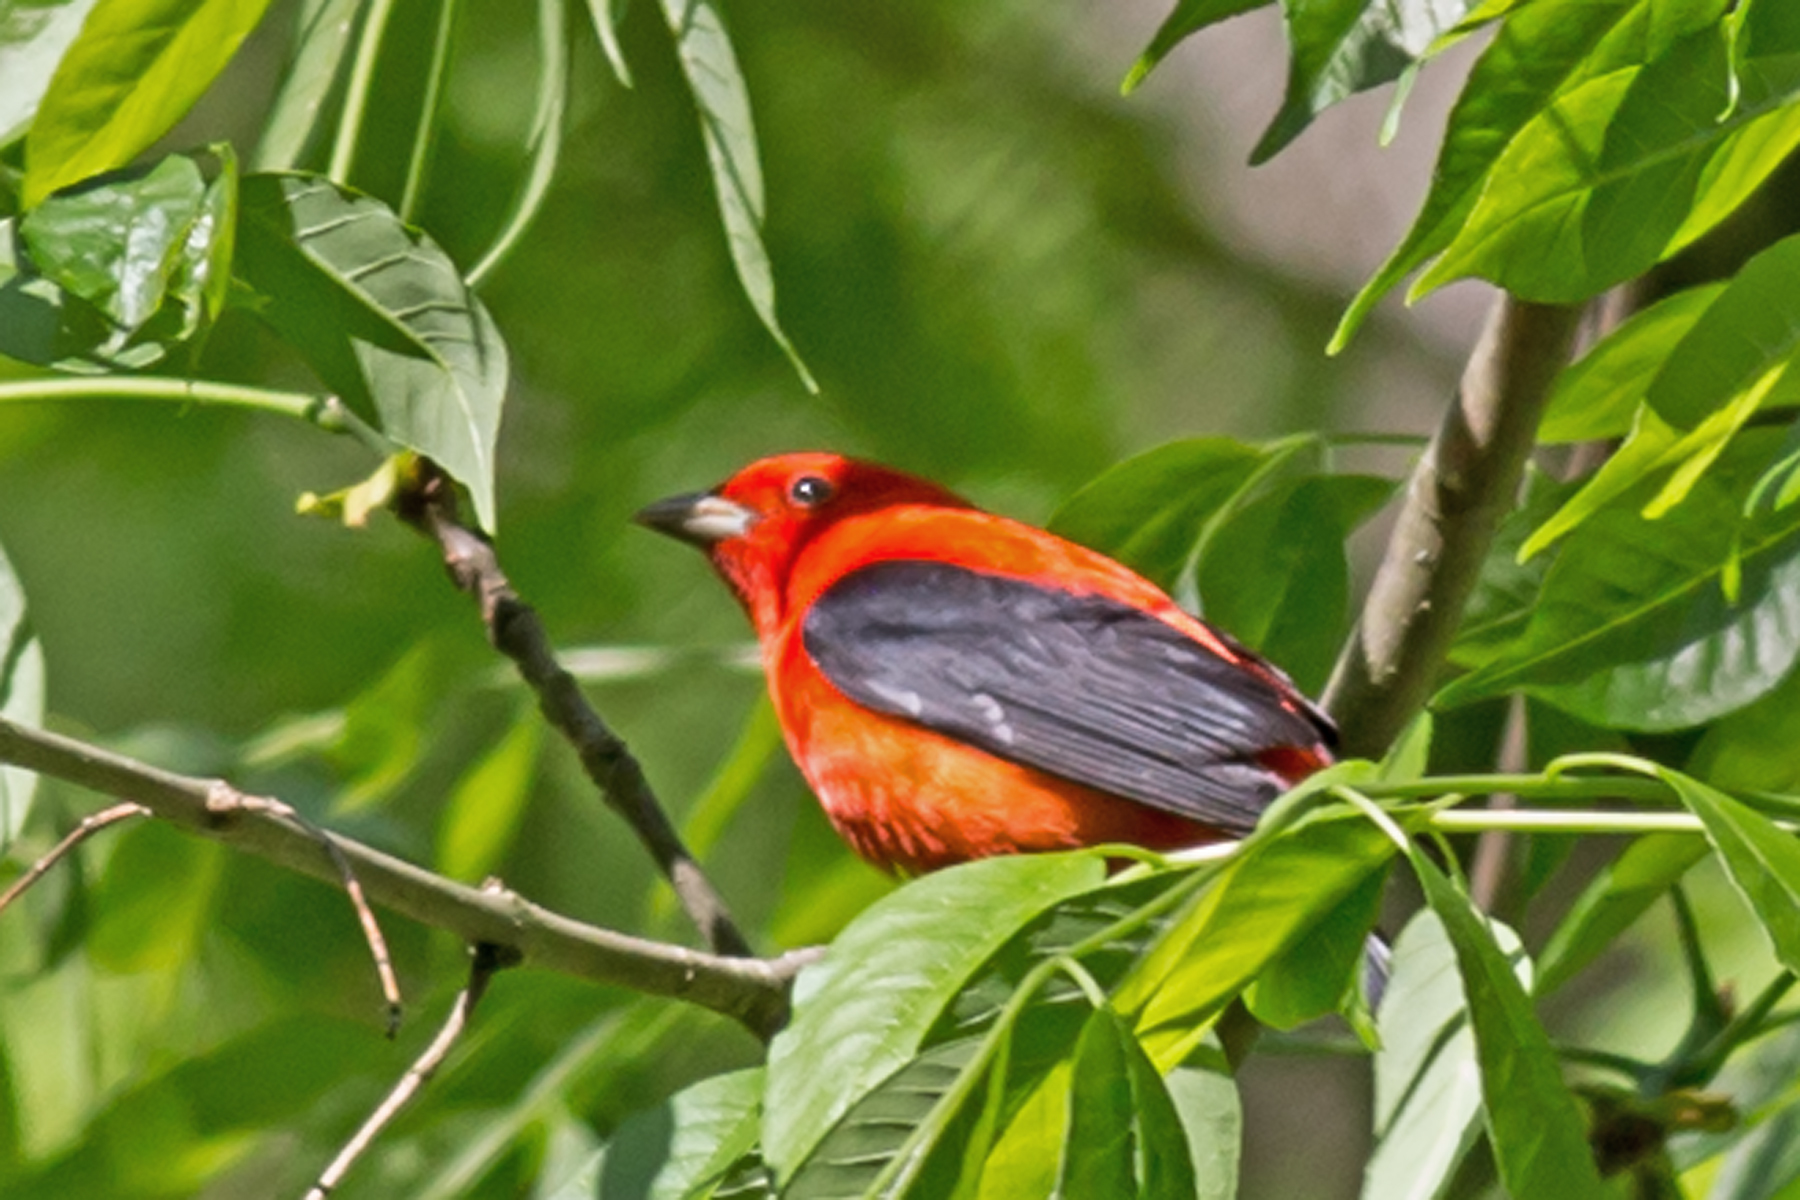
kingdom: Animalia
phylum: Chordata
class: Aves
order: Passeriformes
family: Cardinalidae
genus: Piranga
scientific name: Piranga olivacea
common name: Scarlet tanager
